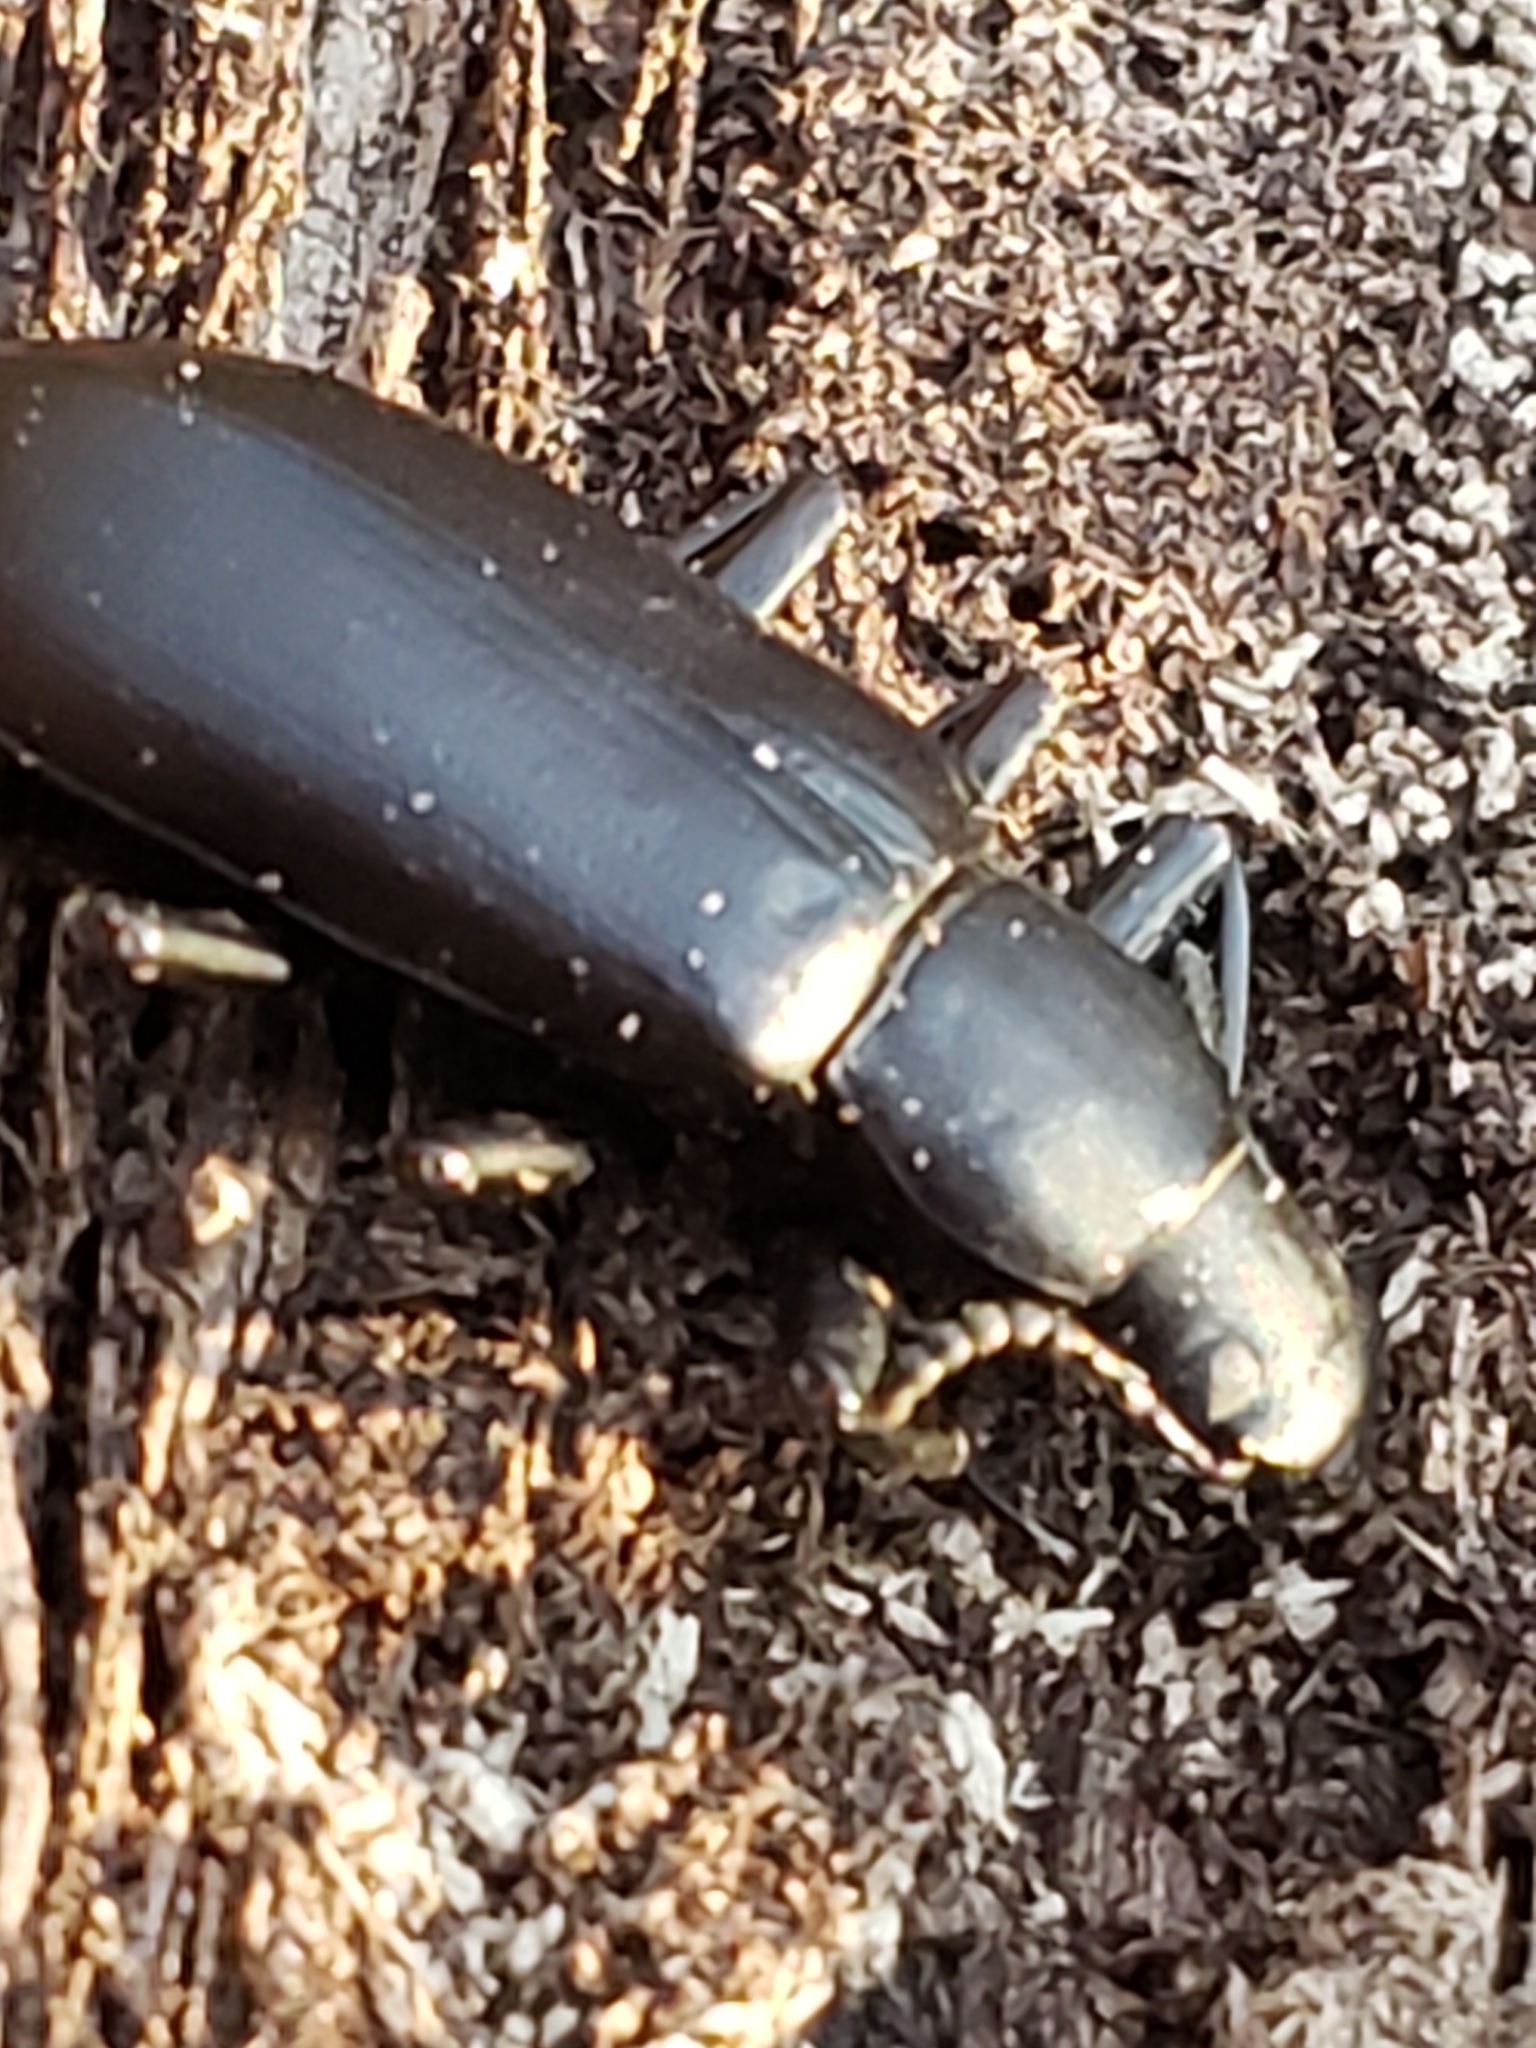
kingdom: Animalia
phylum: Arthropoda
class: Insecta
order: Coleoptera
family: Tenebrionidae
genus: Alobates
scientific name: Alobates
